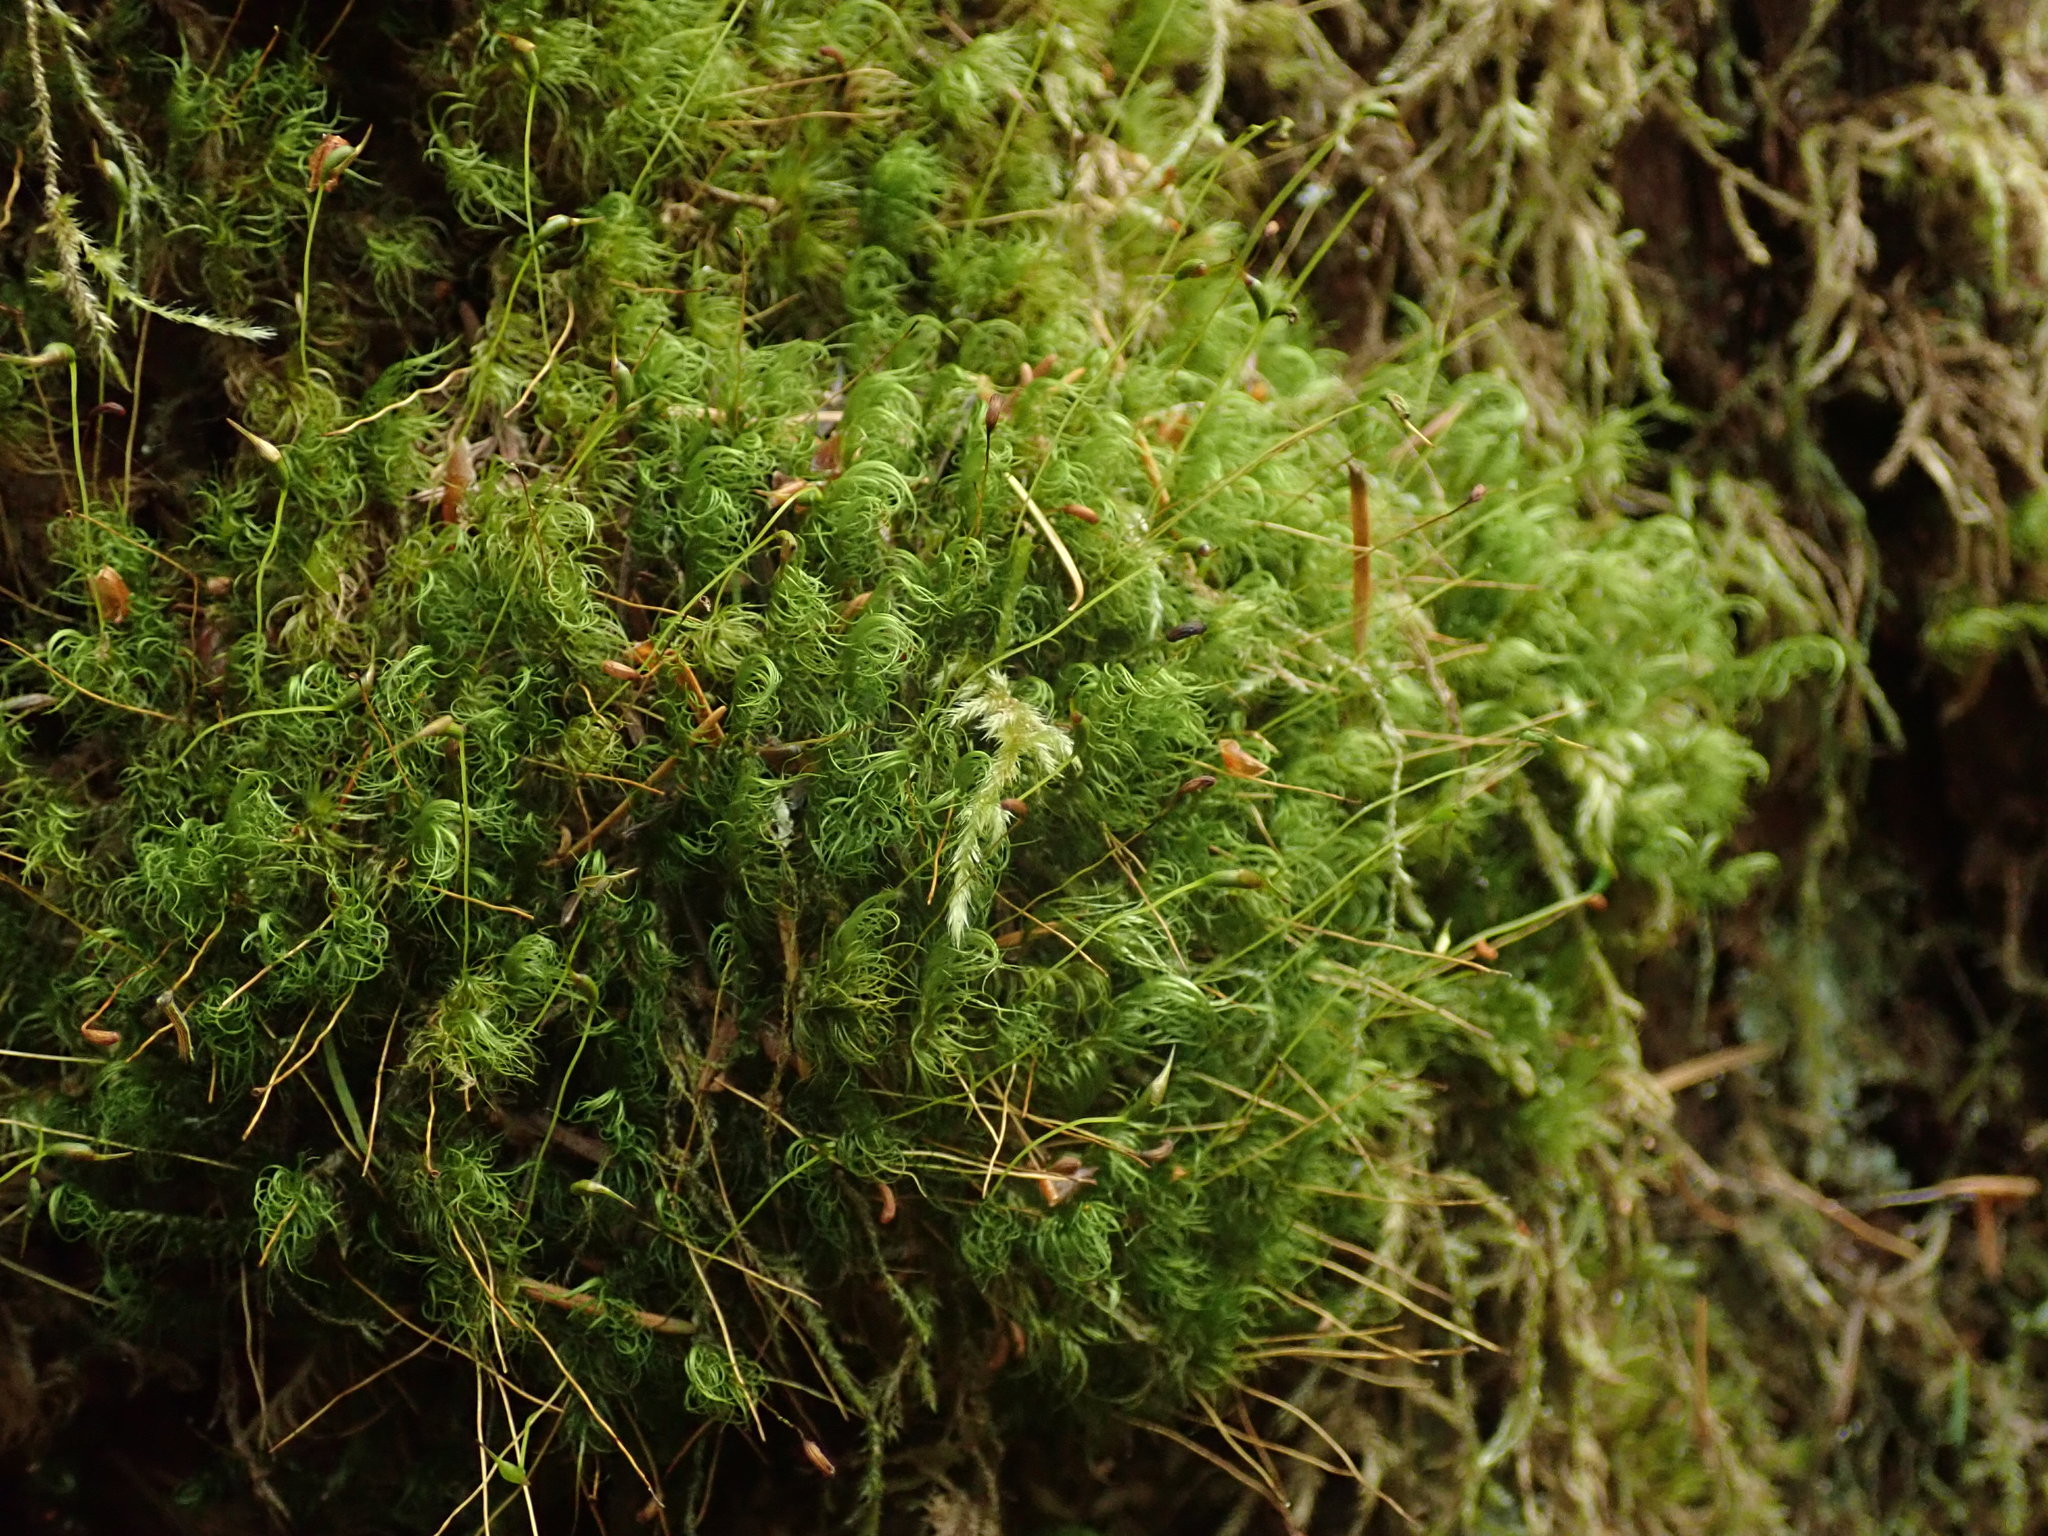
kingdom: Plantae
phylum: Bryophyta
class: Bryopsida
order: Dicranales
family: Dicranaceae
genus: Dicranum
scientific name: Dicranum fuscescens
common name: Curly heron's-bill moss
